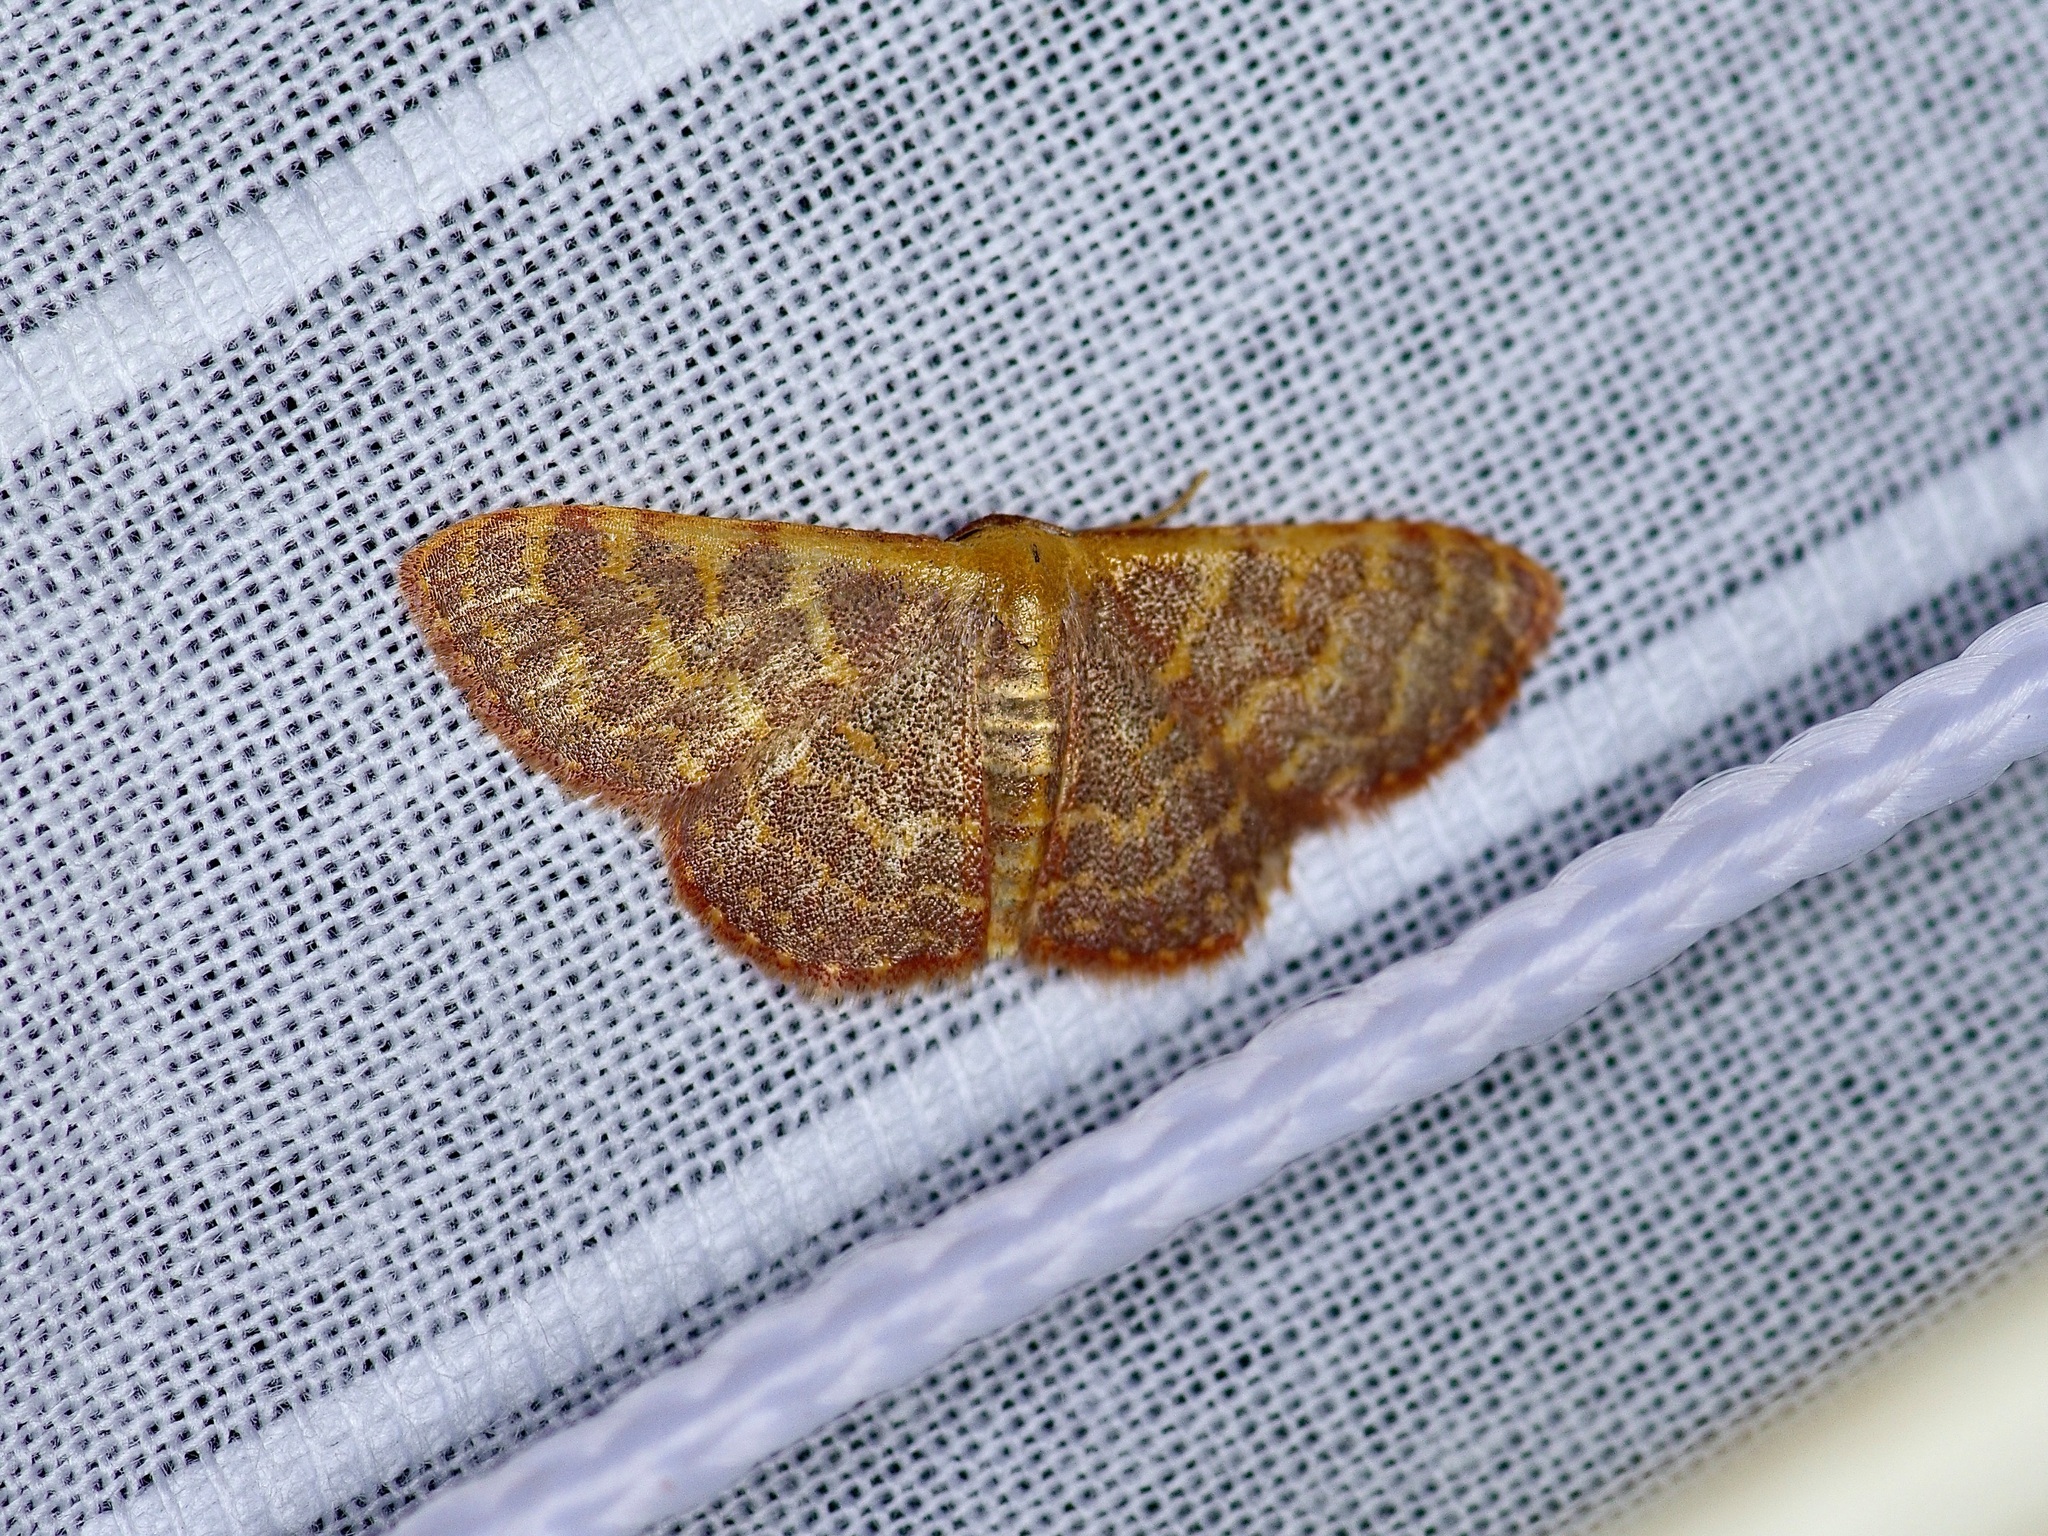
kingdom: Animalia
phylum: Arthropoda
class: Insecta
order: Lepidoptera
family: Geometridae
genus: Leptostales
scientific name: Leptostales pannaria
